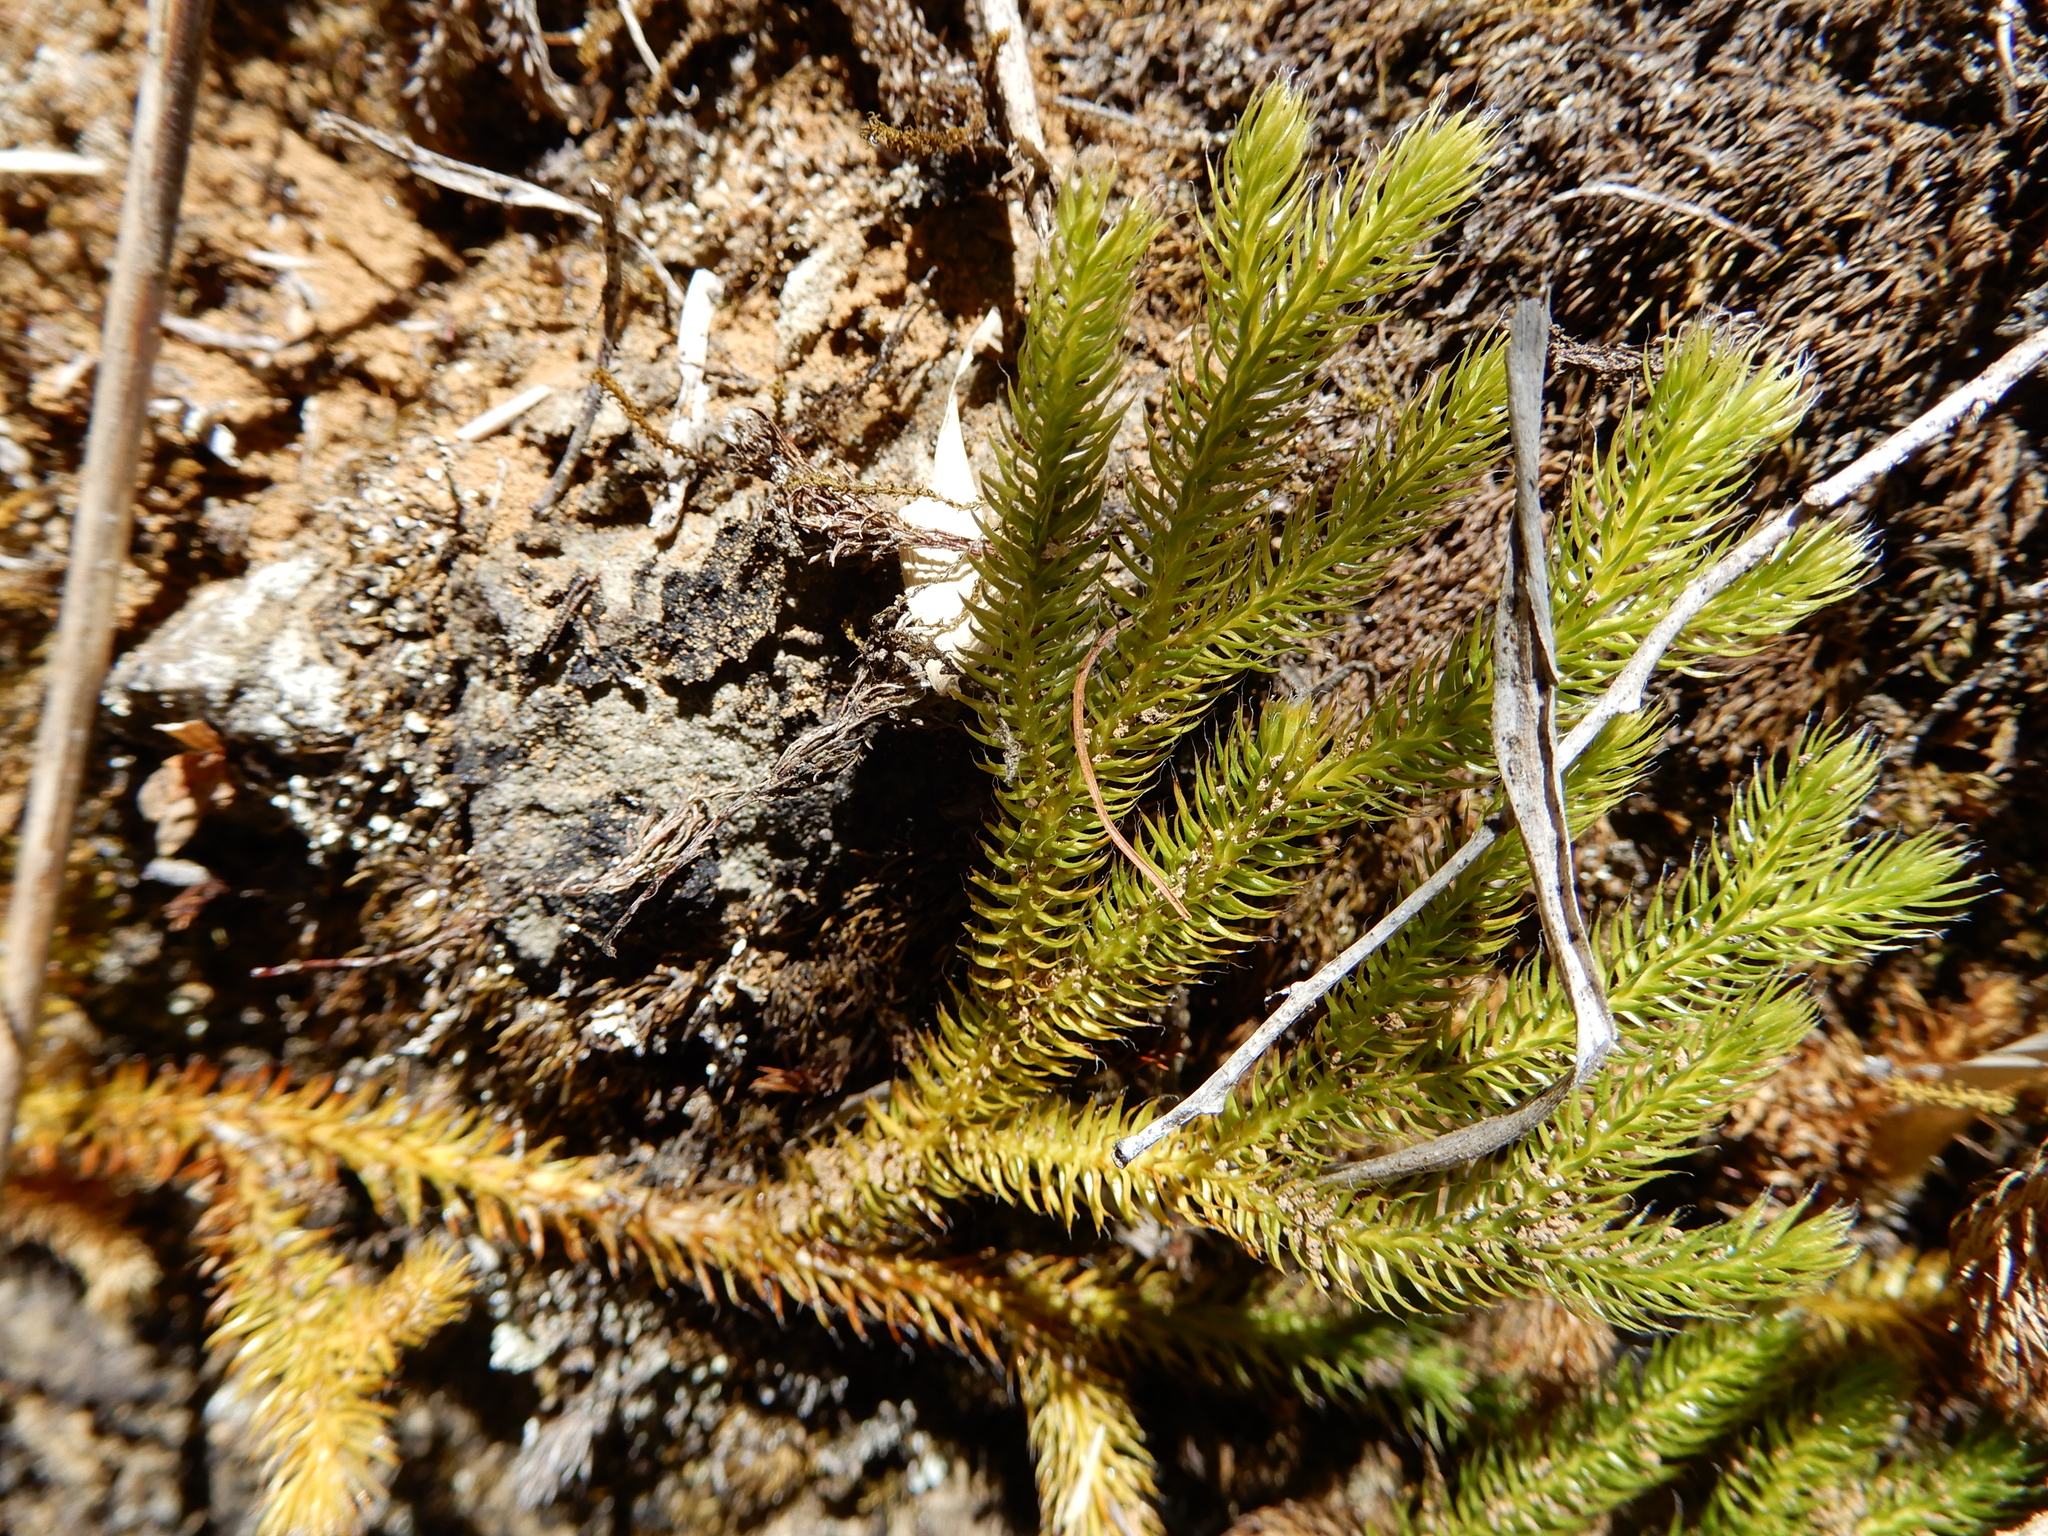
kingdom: Plantae
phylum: Tracheophyta
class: Lycopodiopsida
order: Lycopodiales
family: Lycopodiaceae
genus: Lycopodium
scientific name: Lycopodium clavatum
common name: Stag's-horn clubmoss
